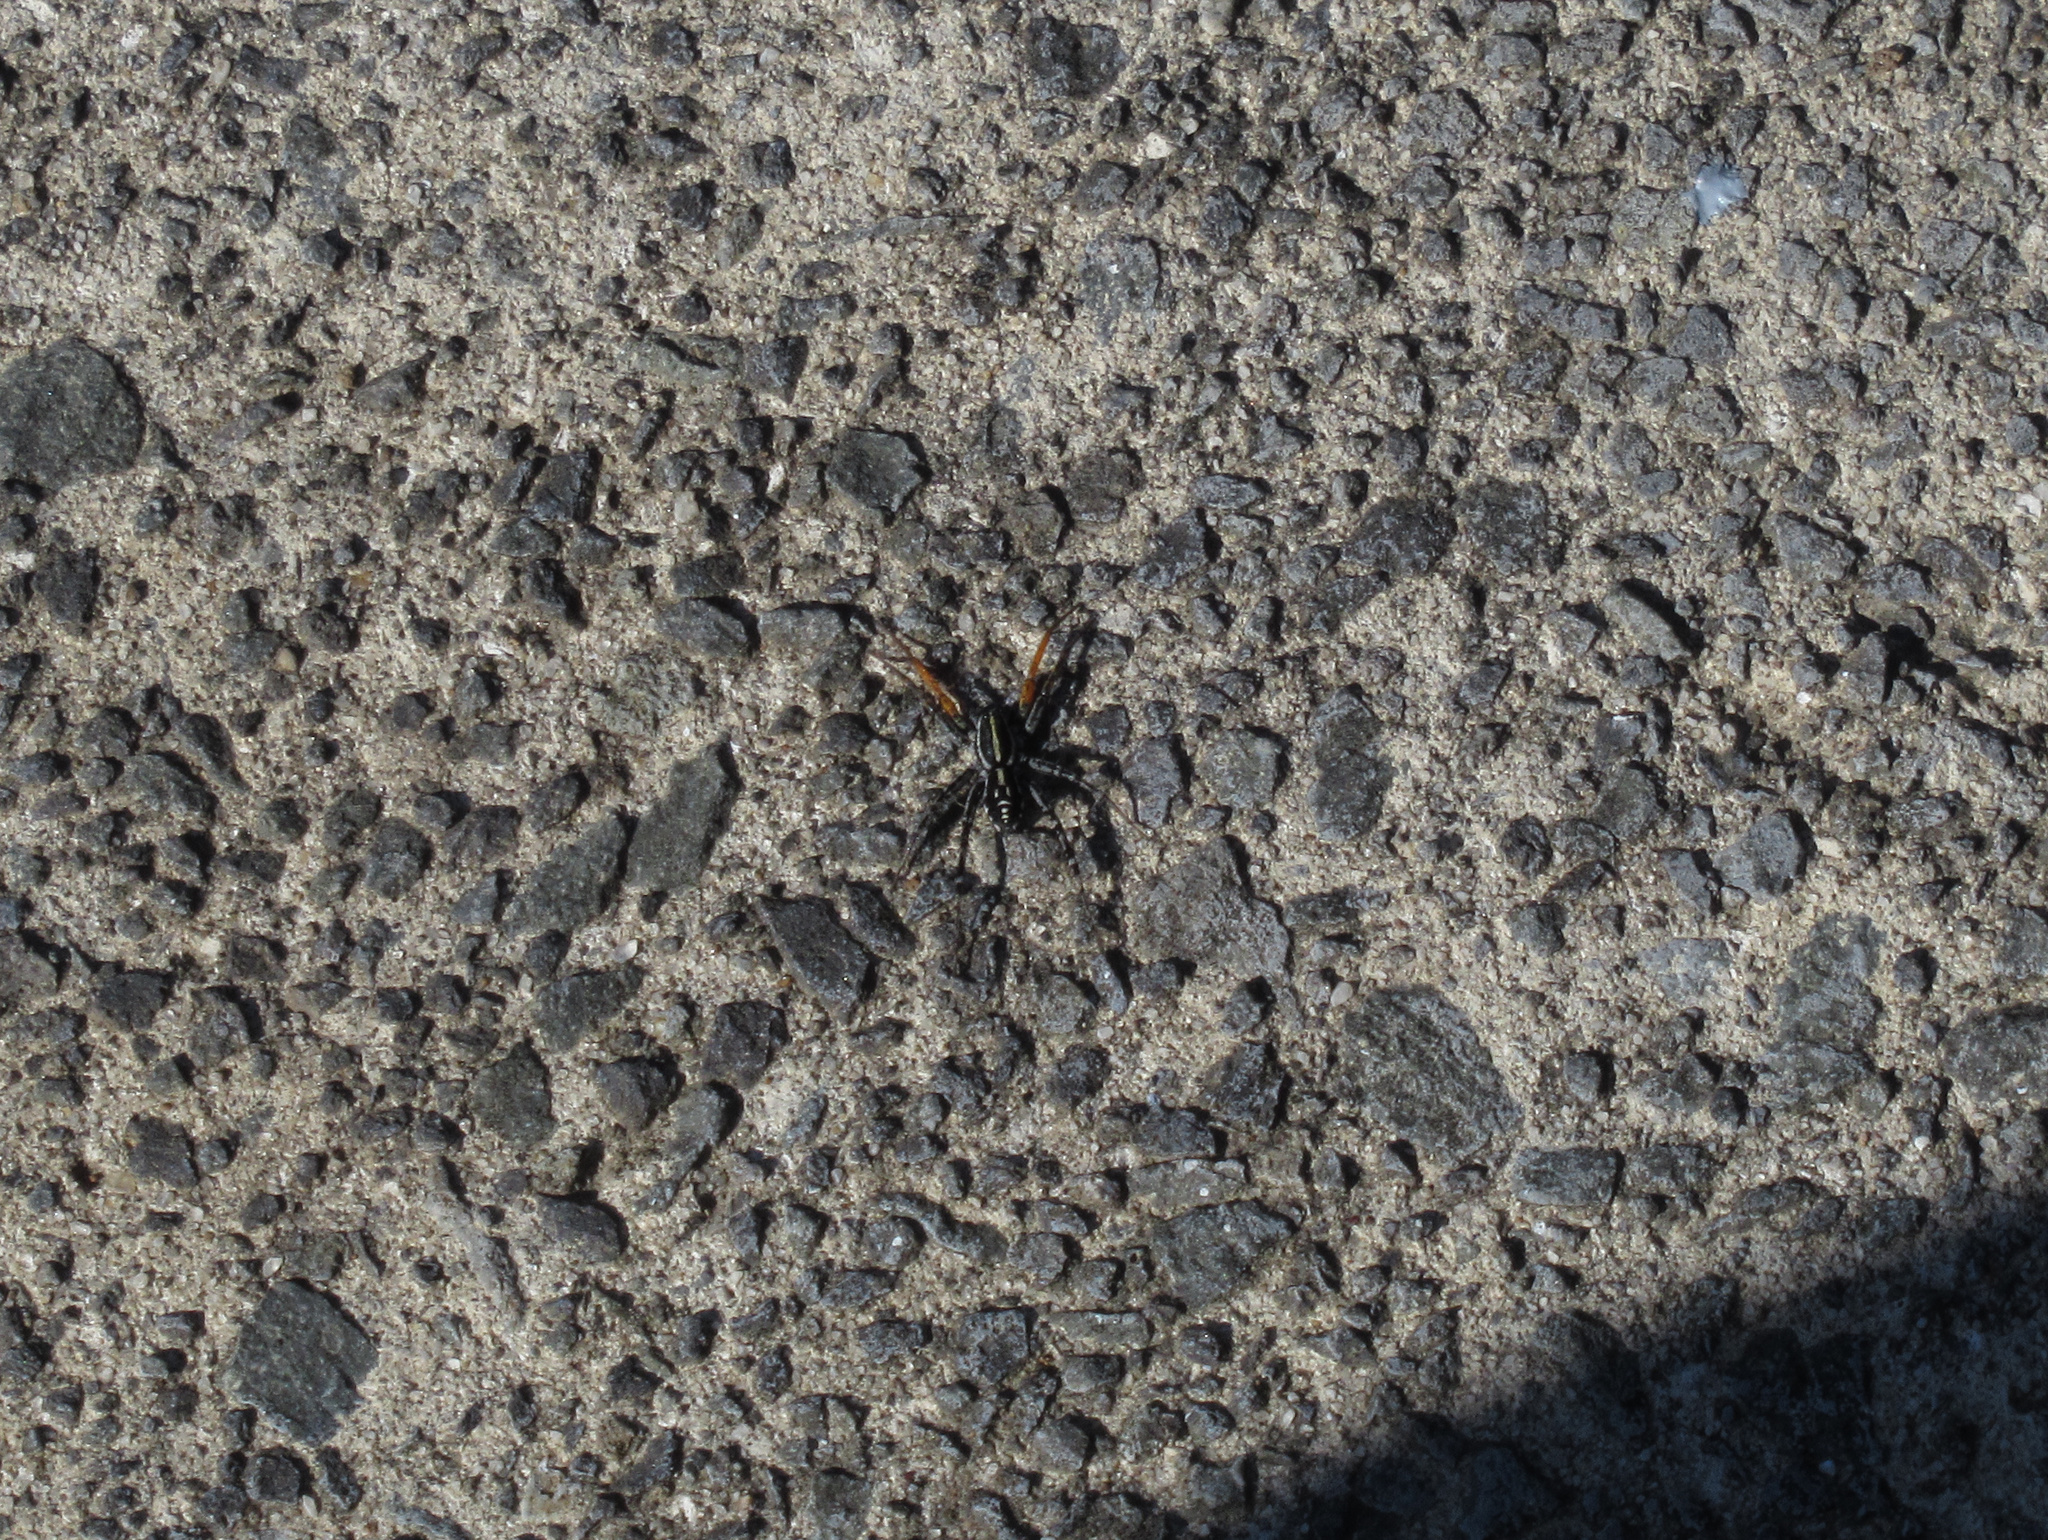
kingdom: Animalia
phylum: Arthropoda
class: Arachnida
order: Araneae
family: Corinnidae
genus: Nyssus
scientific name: Nyssus coloripes
